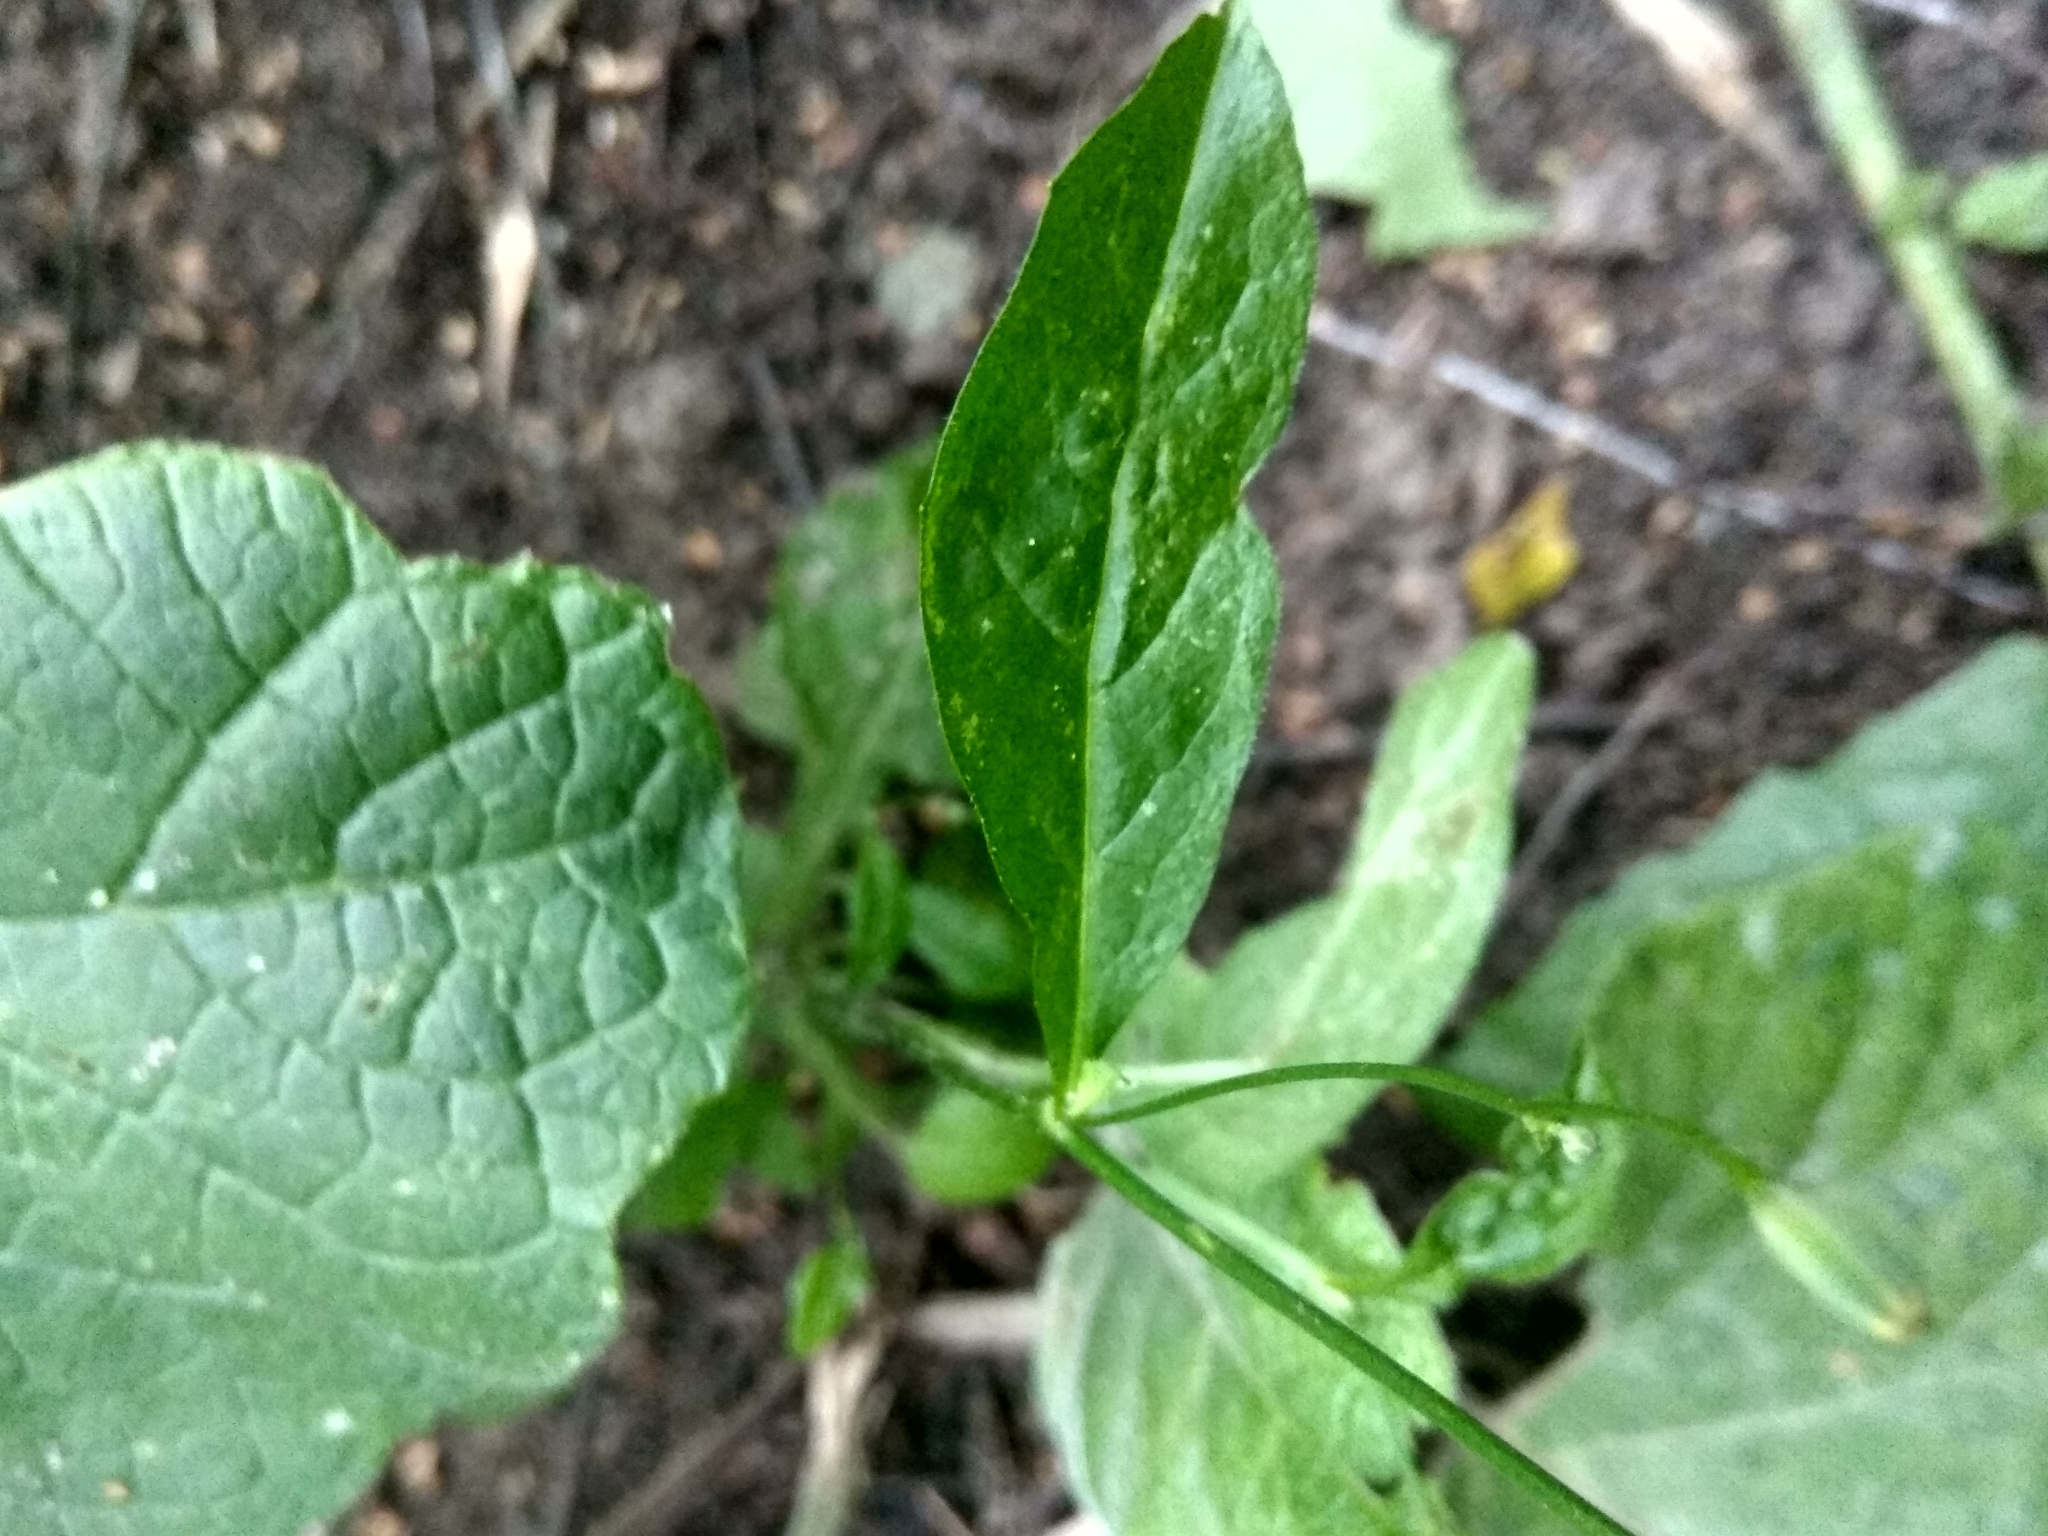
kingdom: Plantae
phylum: Tracheophyta
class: Magnoliopsida
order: Asterales
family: Asteraceae
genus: Lapsana
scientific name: Lapsana communis
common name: Nipplewort
